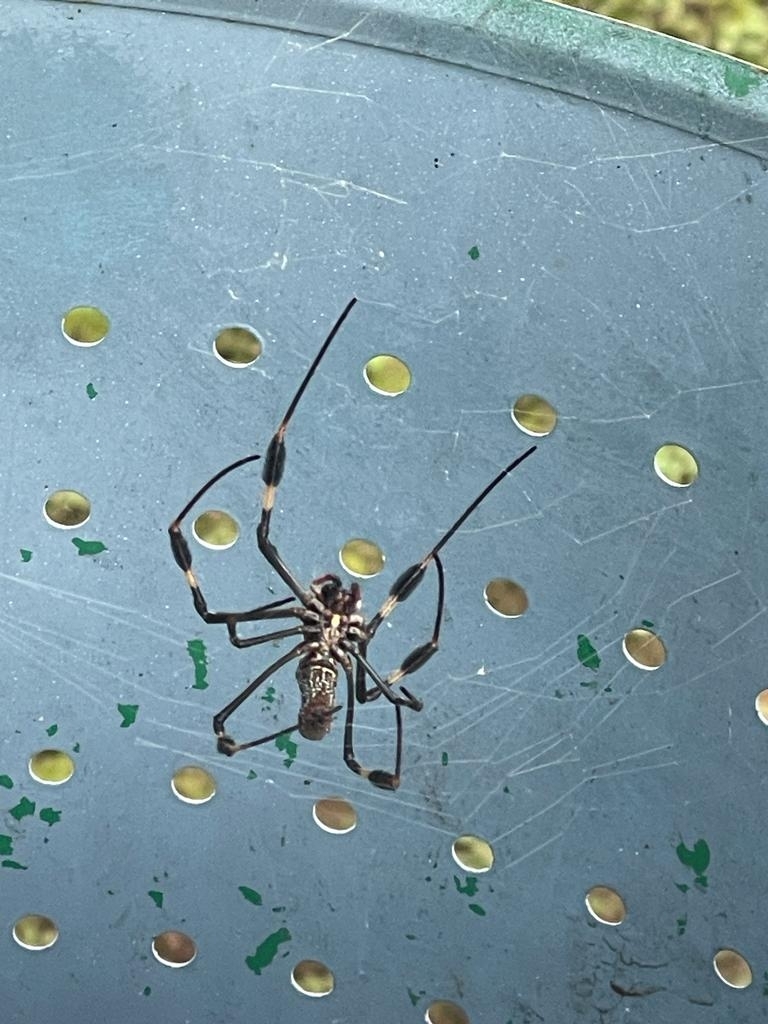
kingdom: Animalia
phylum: Arthropoda
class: Arachnida
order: Araneae
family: Araneidae
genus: Trichonephila
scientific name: Trichonephila clavipes
